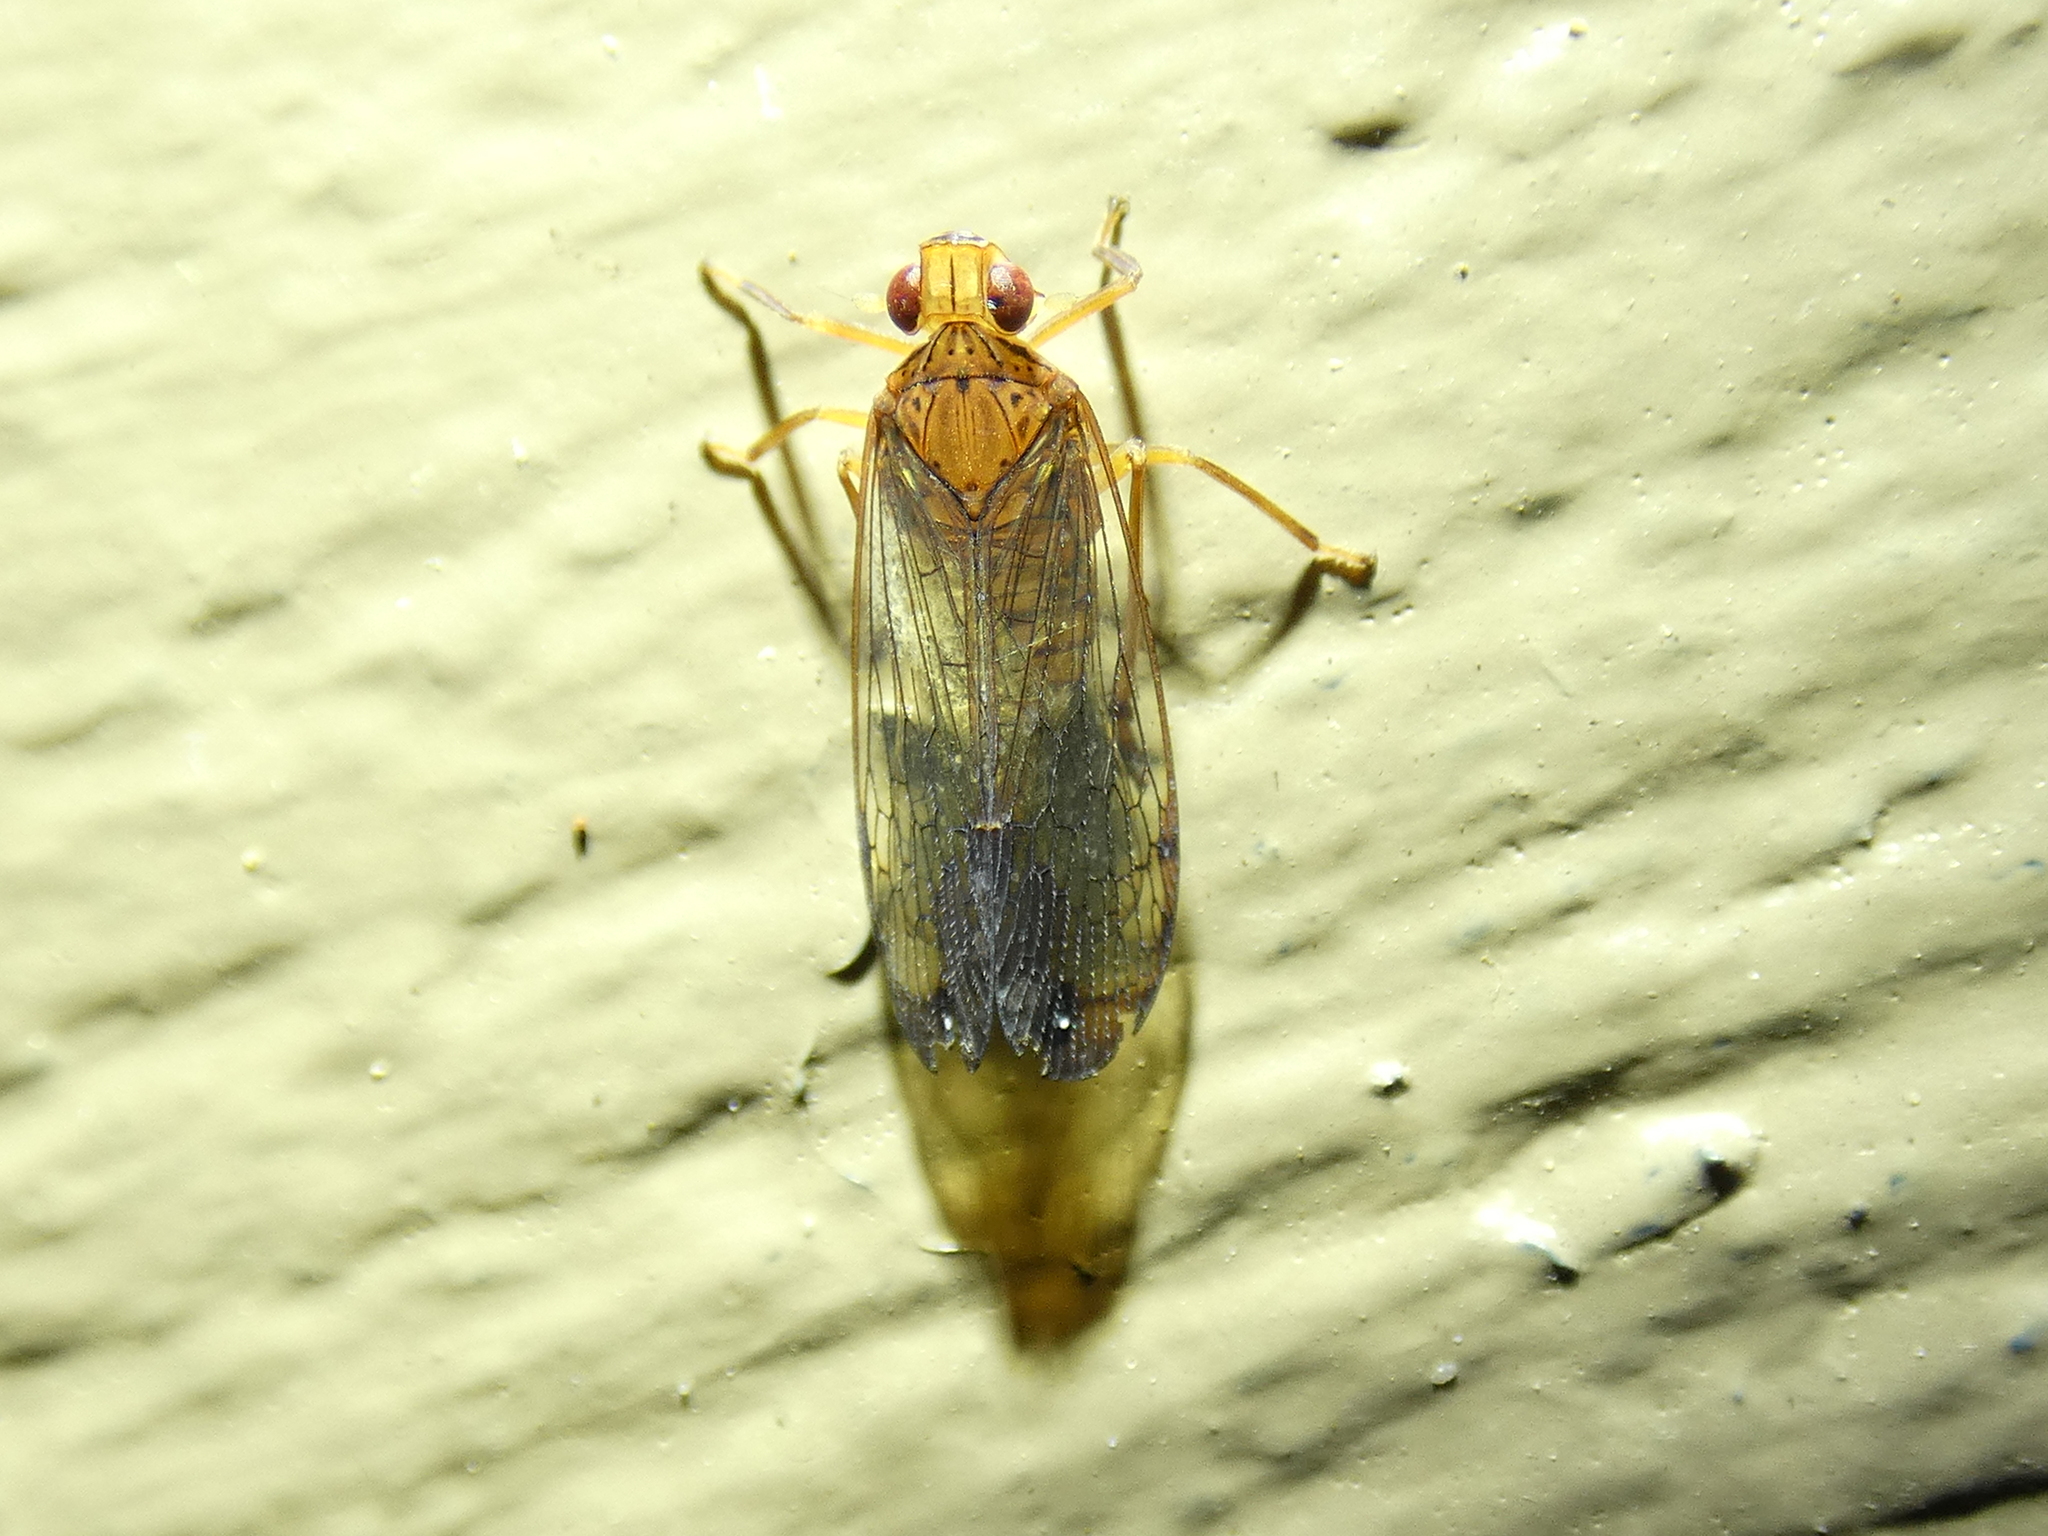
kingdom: Animalia
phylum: Arthropoda
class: Insecta
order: Hemiptera
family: Lophopidae
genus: Magia
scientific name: Magia stuarti
